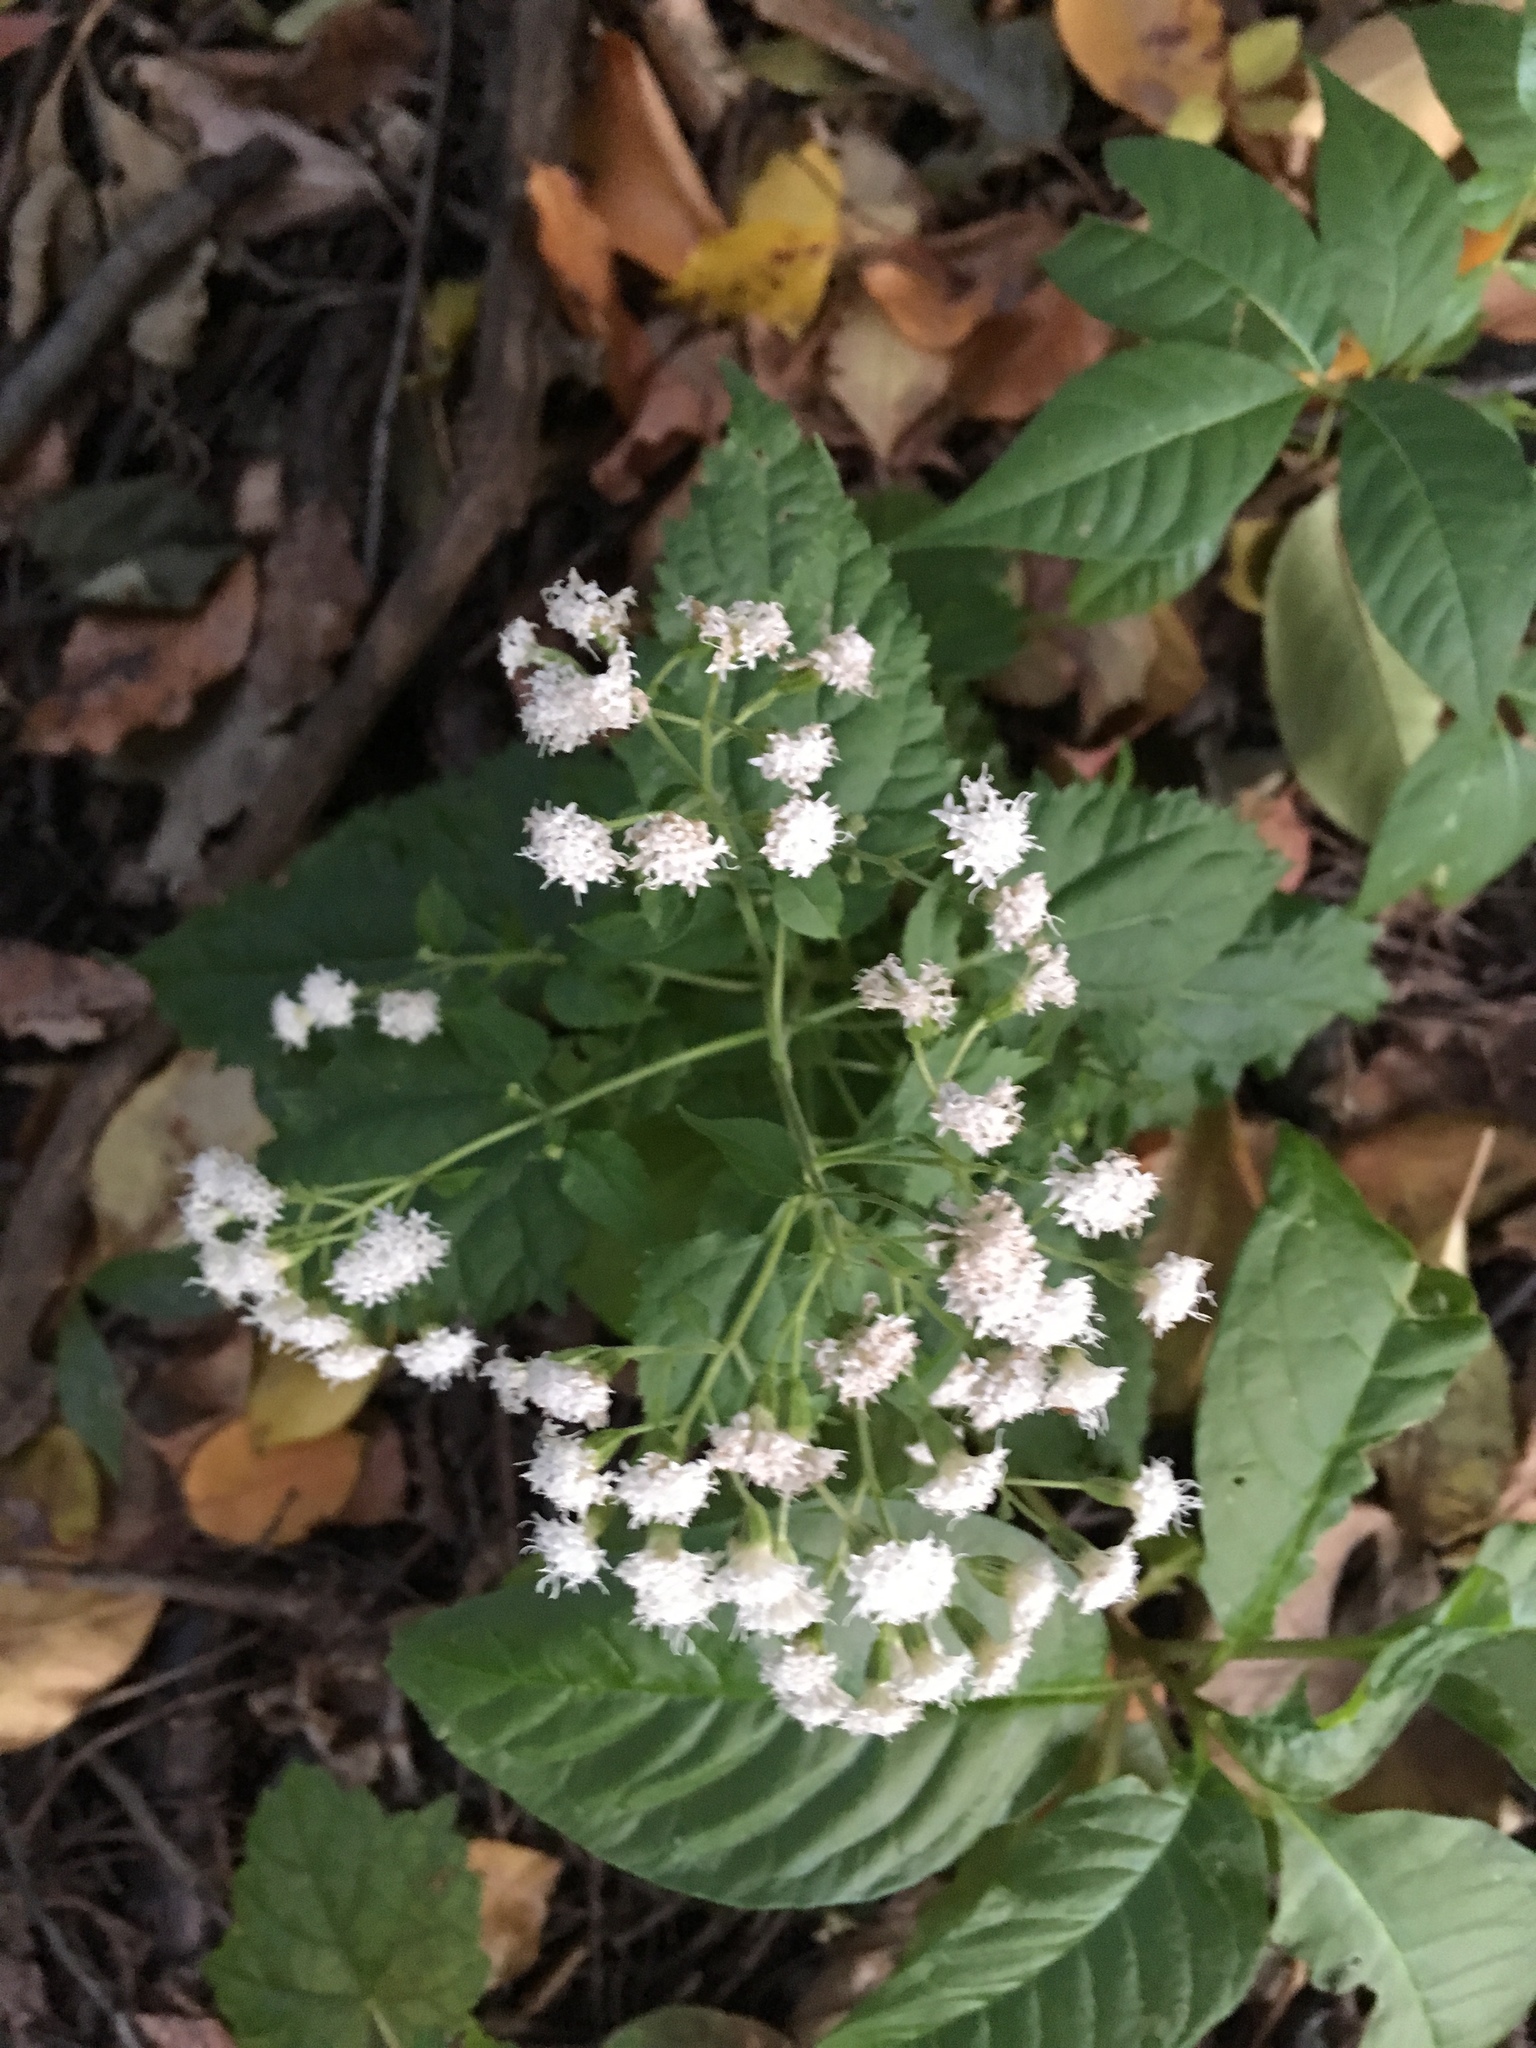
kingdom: Plantae
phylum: Tracheophyta
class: Magnoliopsida
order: Asterales
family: Asteraceae
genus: Ageratina
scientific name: Ageratina altissima
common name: White snakeroot
